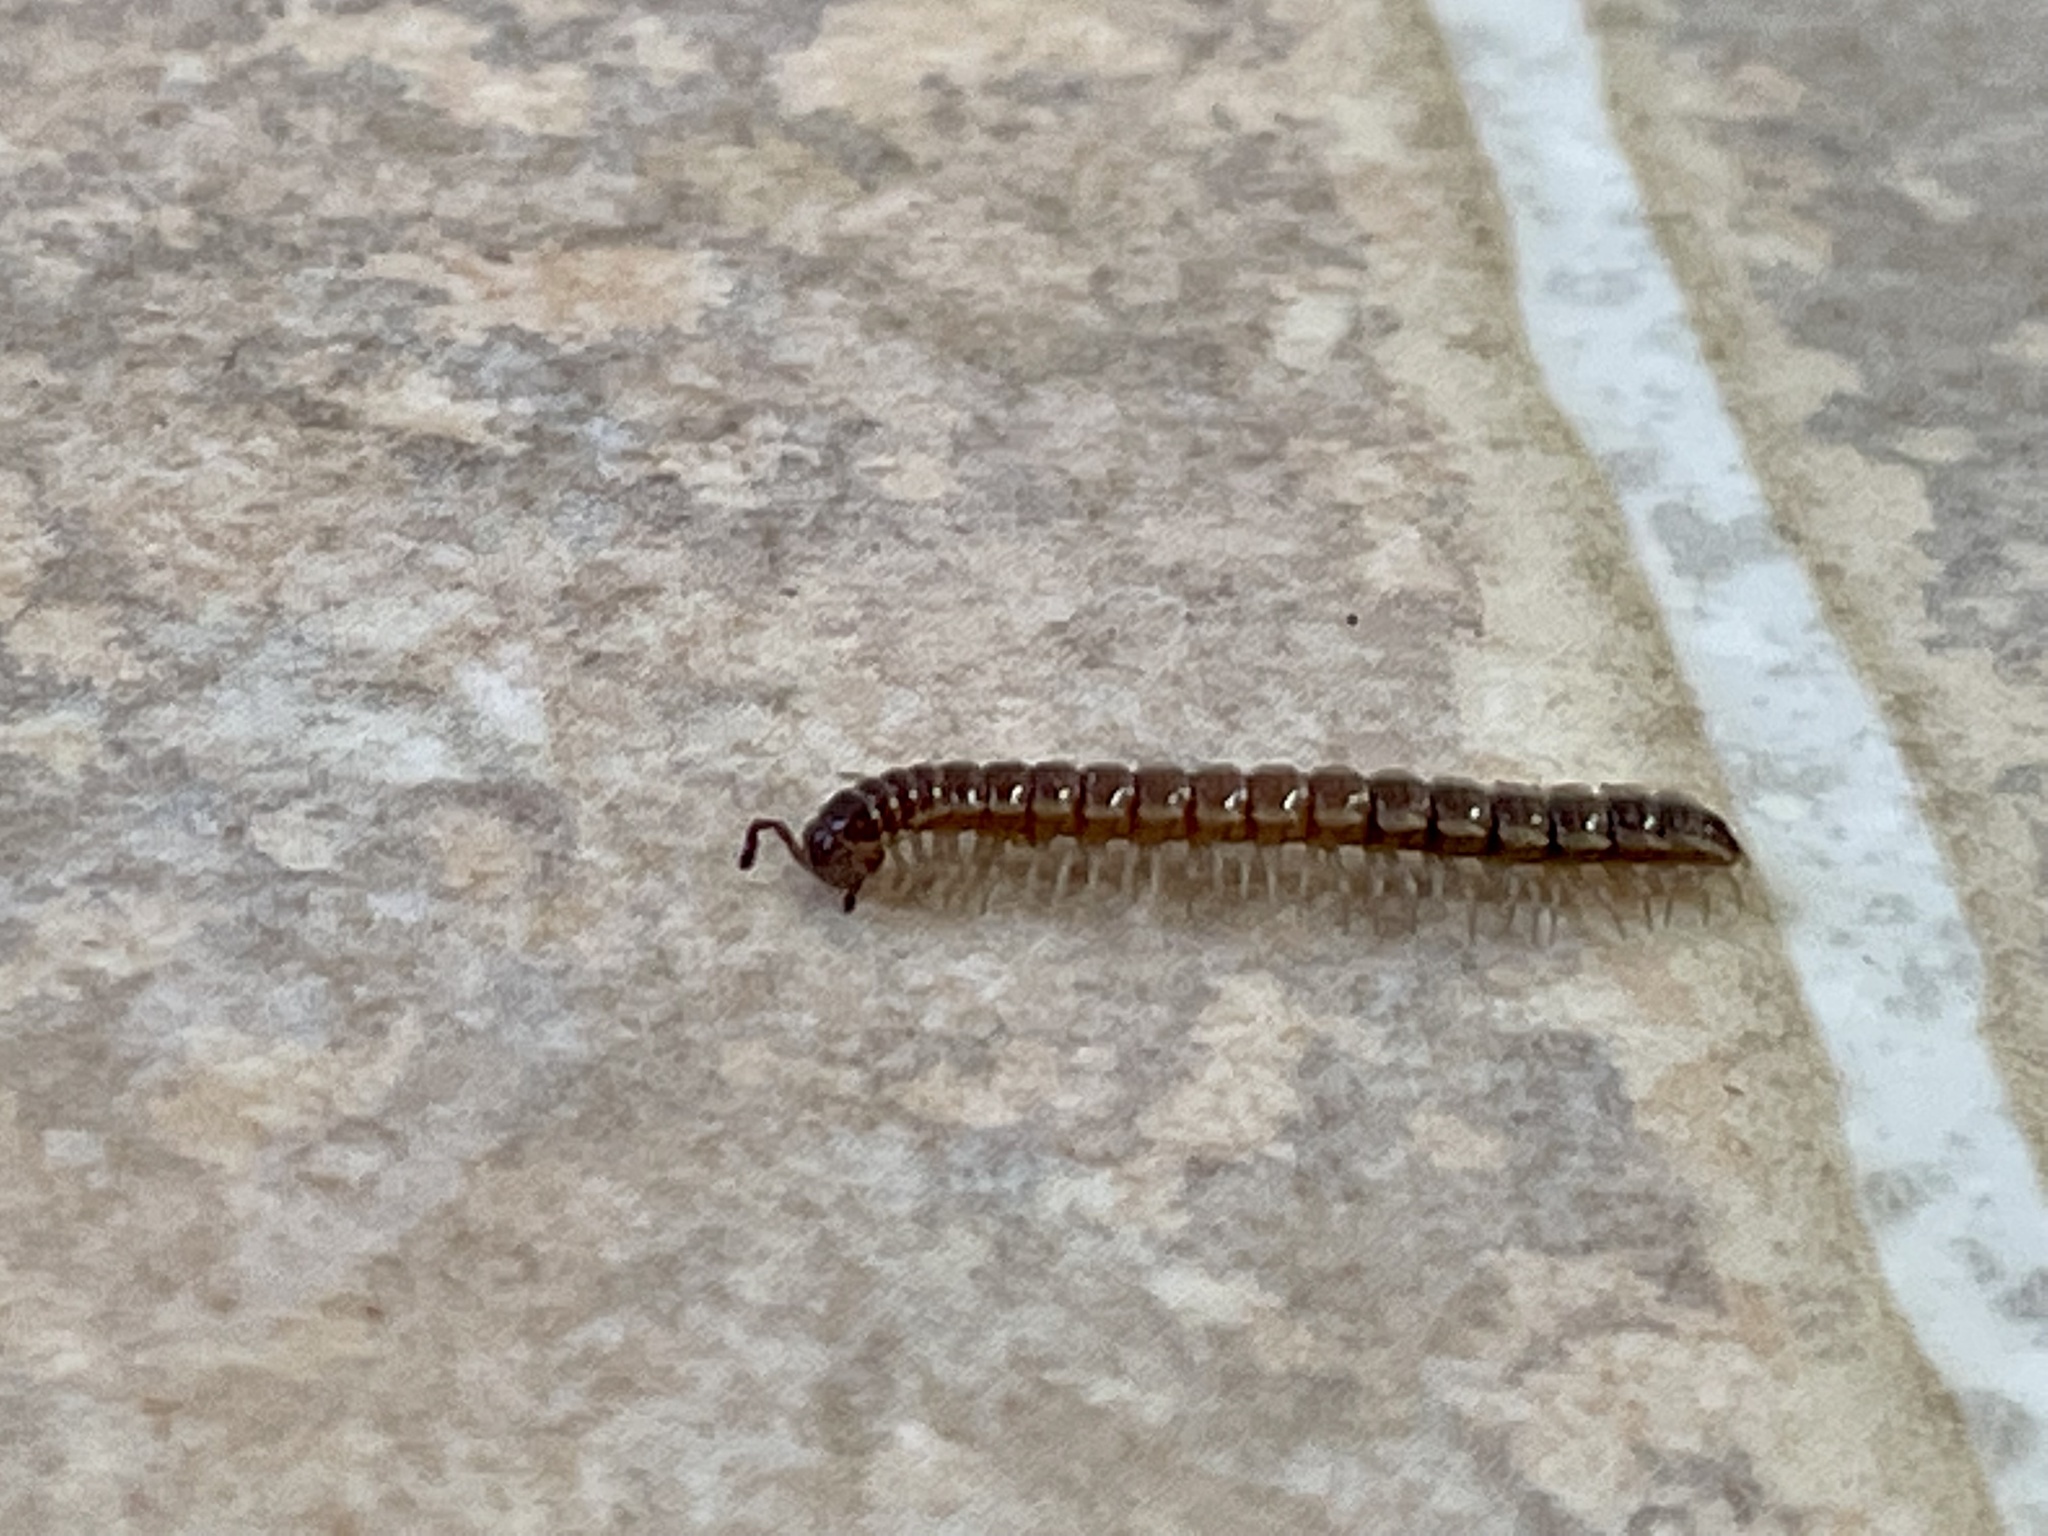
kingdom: Animalia
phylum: Arthropoda
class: Diplopoda
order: Polydesmida
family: Paradoxosomatidae
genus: Oxidus
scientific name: Oxidus gracilis
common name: Greenhouse millipede
